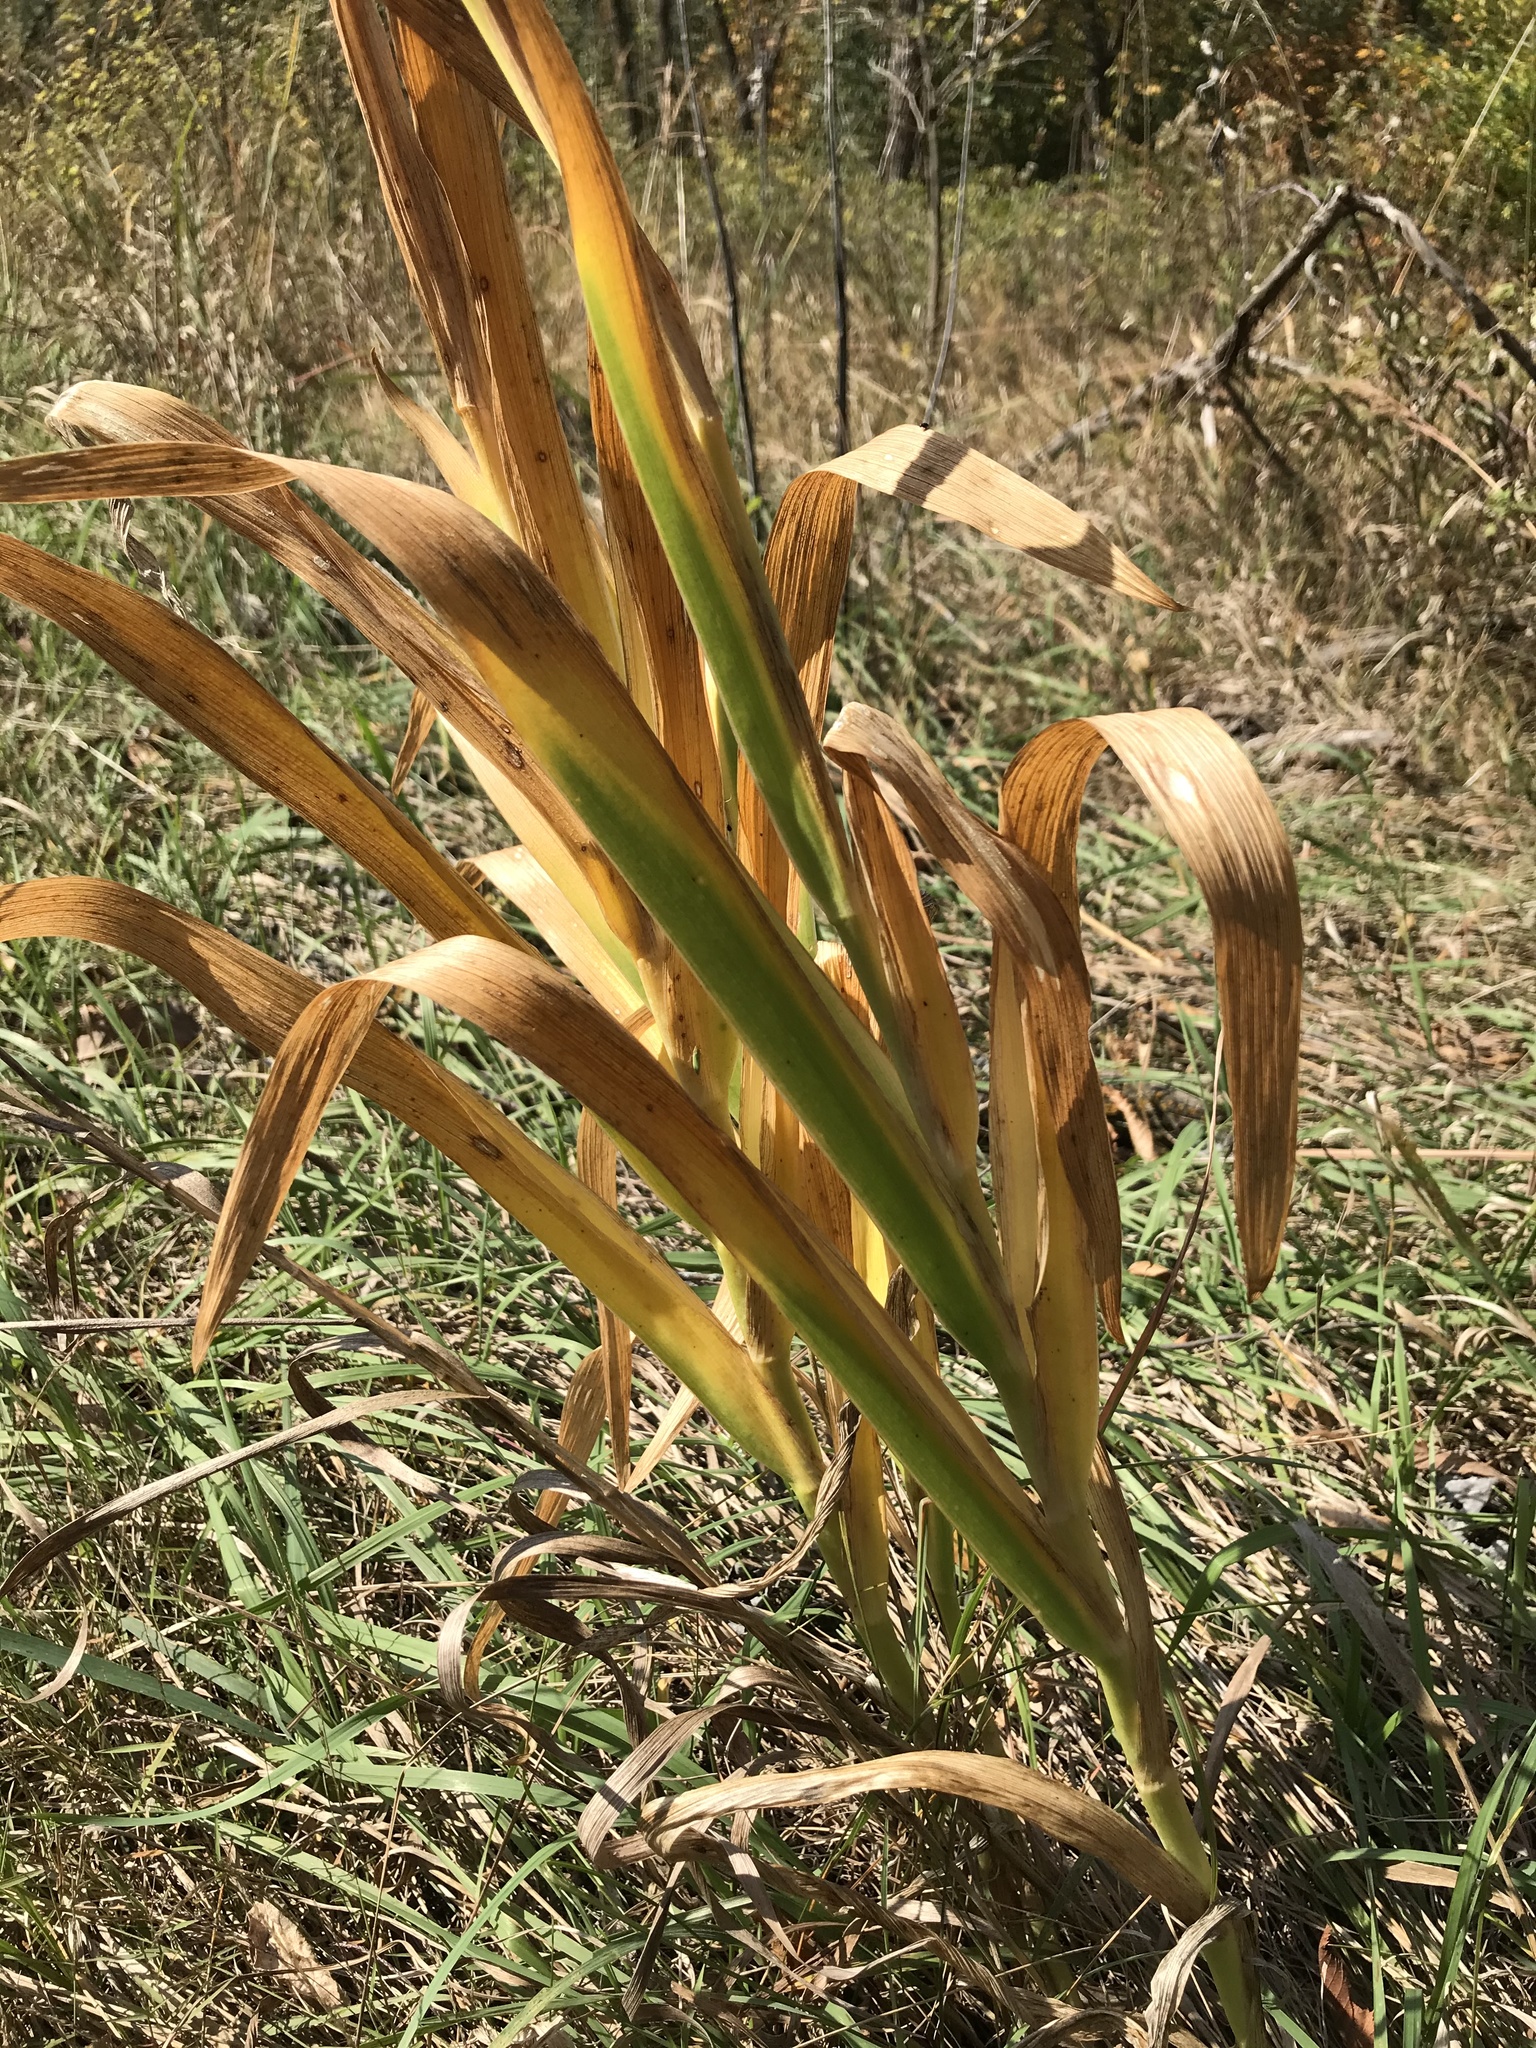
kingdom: Plantae
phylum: Tracheophyta
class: Liliopsida
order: Asparagales
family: Iridaceae
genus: Iris
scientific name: Iris domestica
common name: Belamcanda
